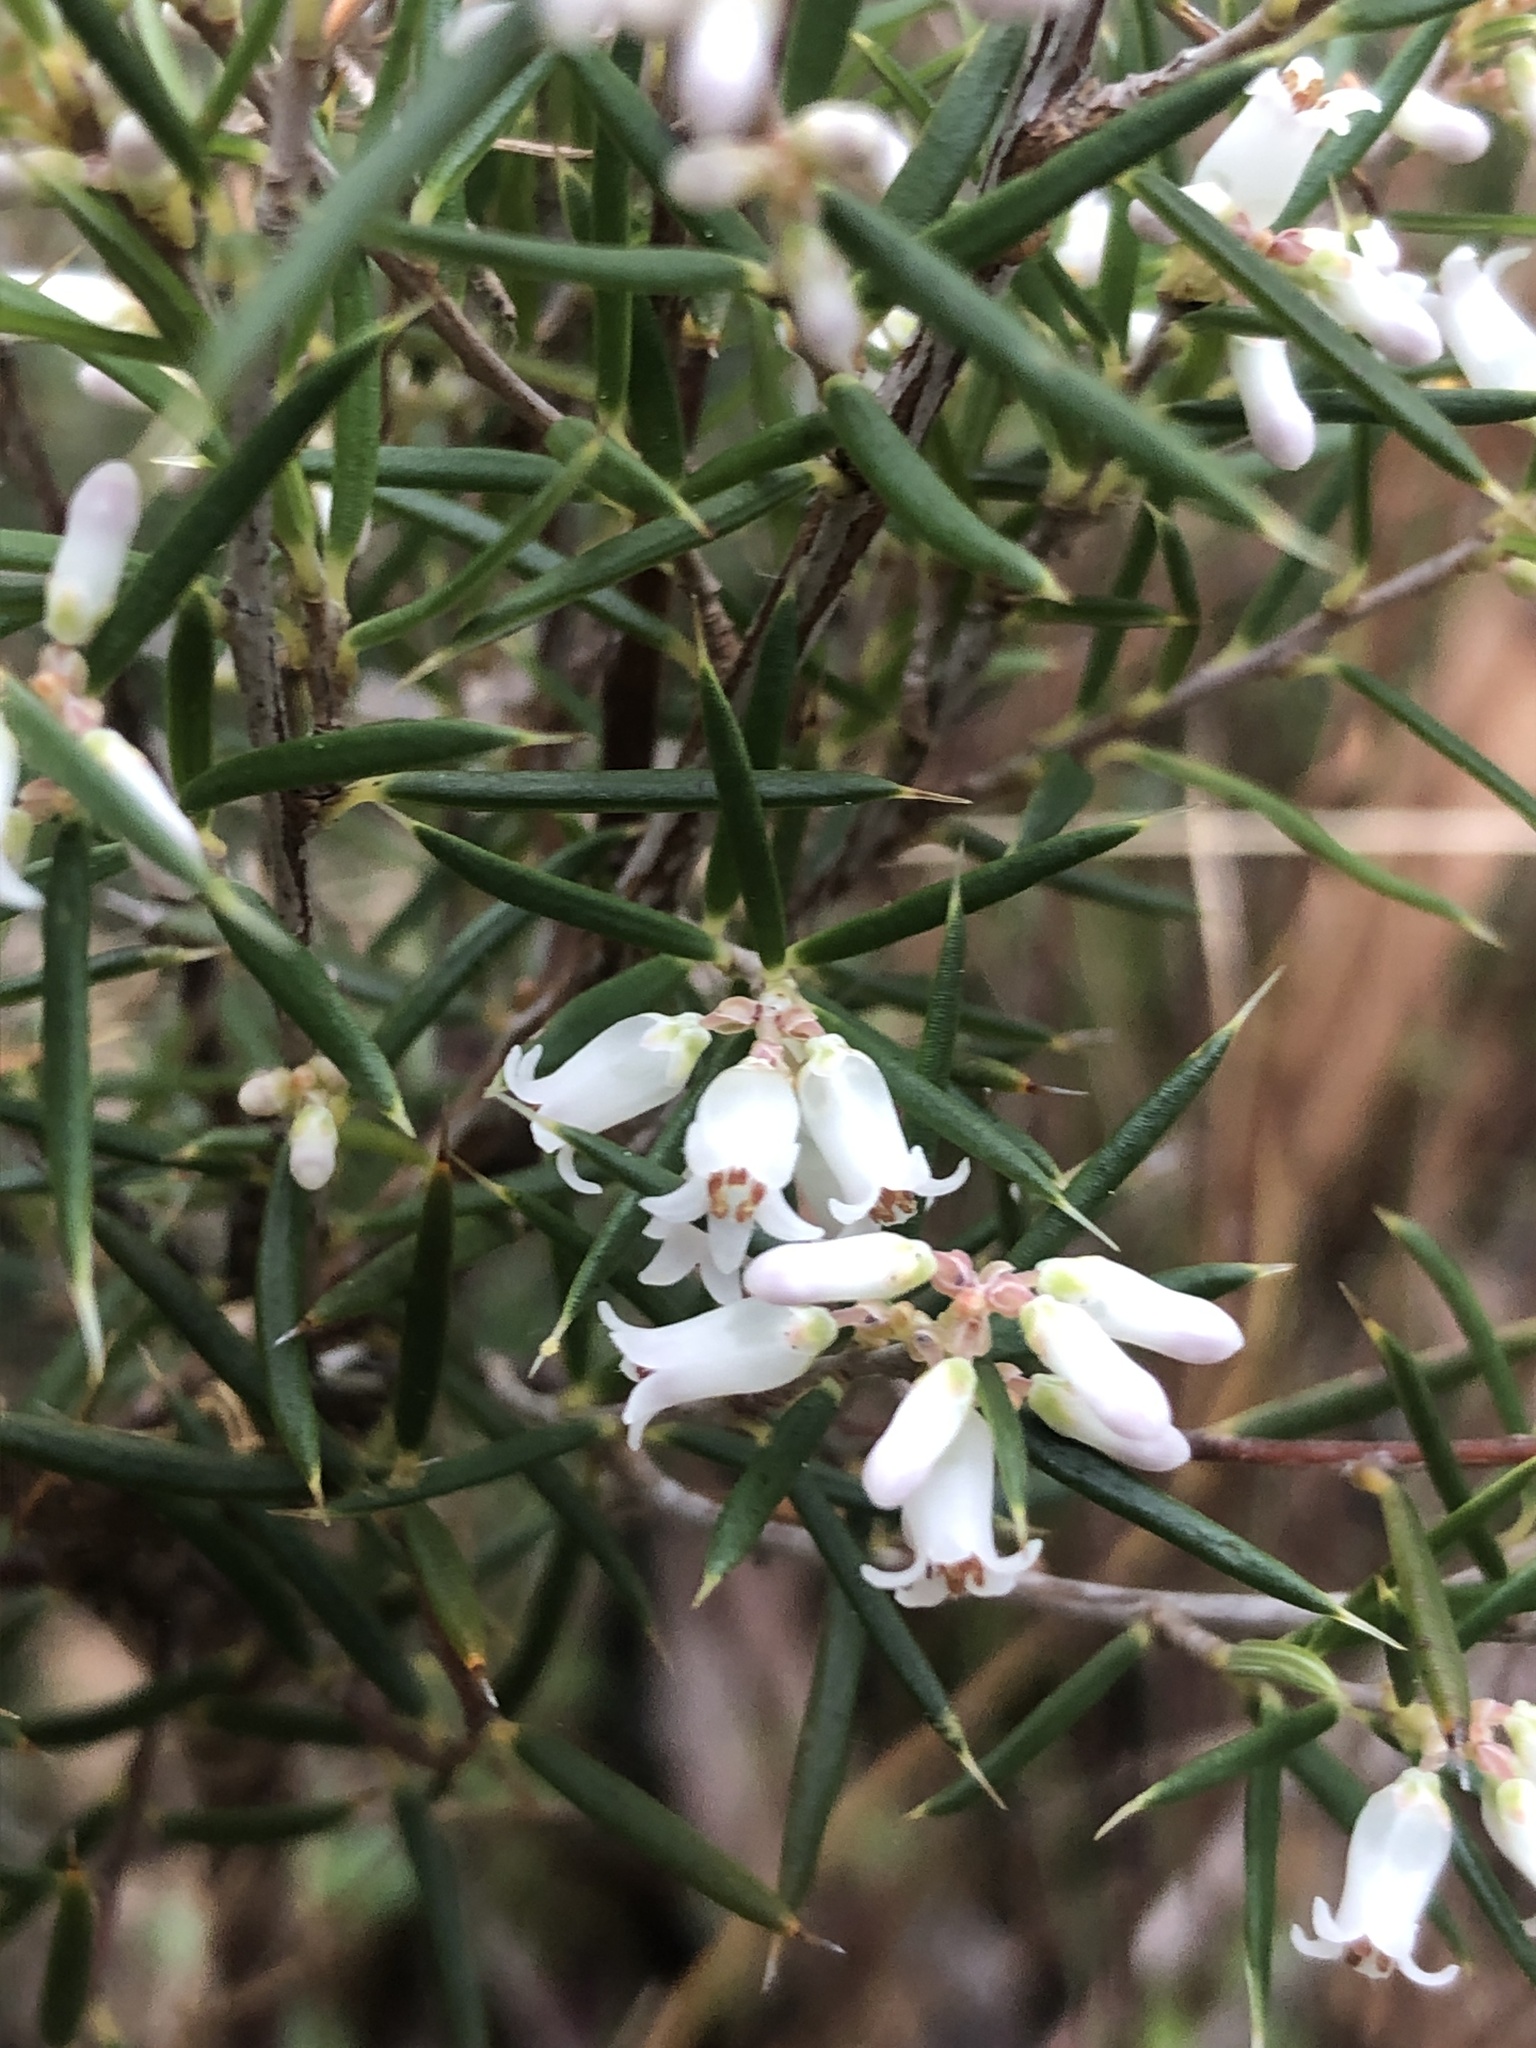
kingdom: Plantae
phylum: Tracheophyta
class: Magnoliopsida
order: Ericales
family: Ericaceae
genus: Lissanthe
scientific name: Lissanthe strigosa
